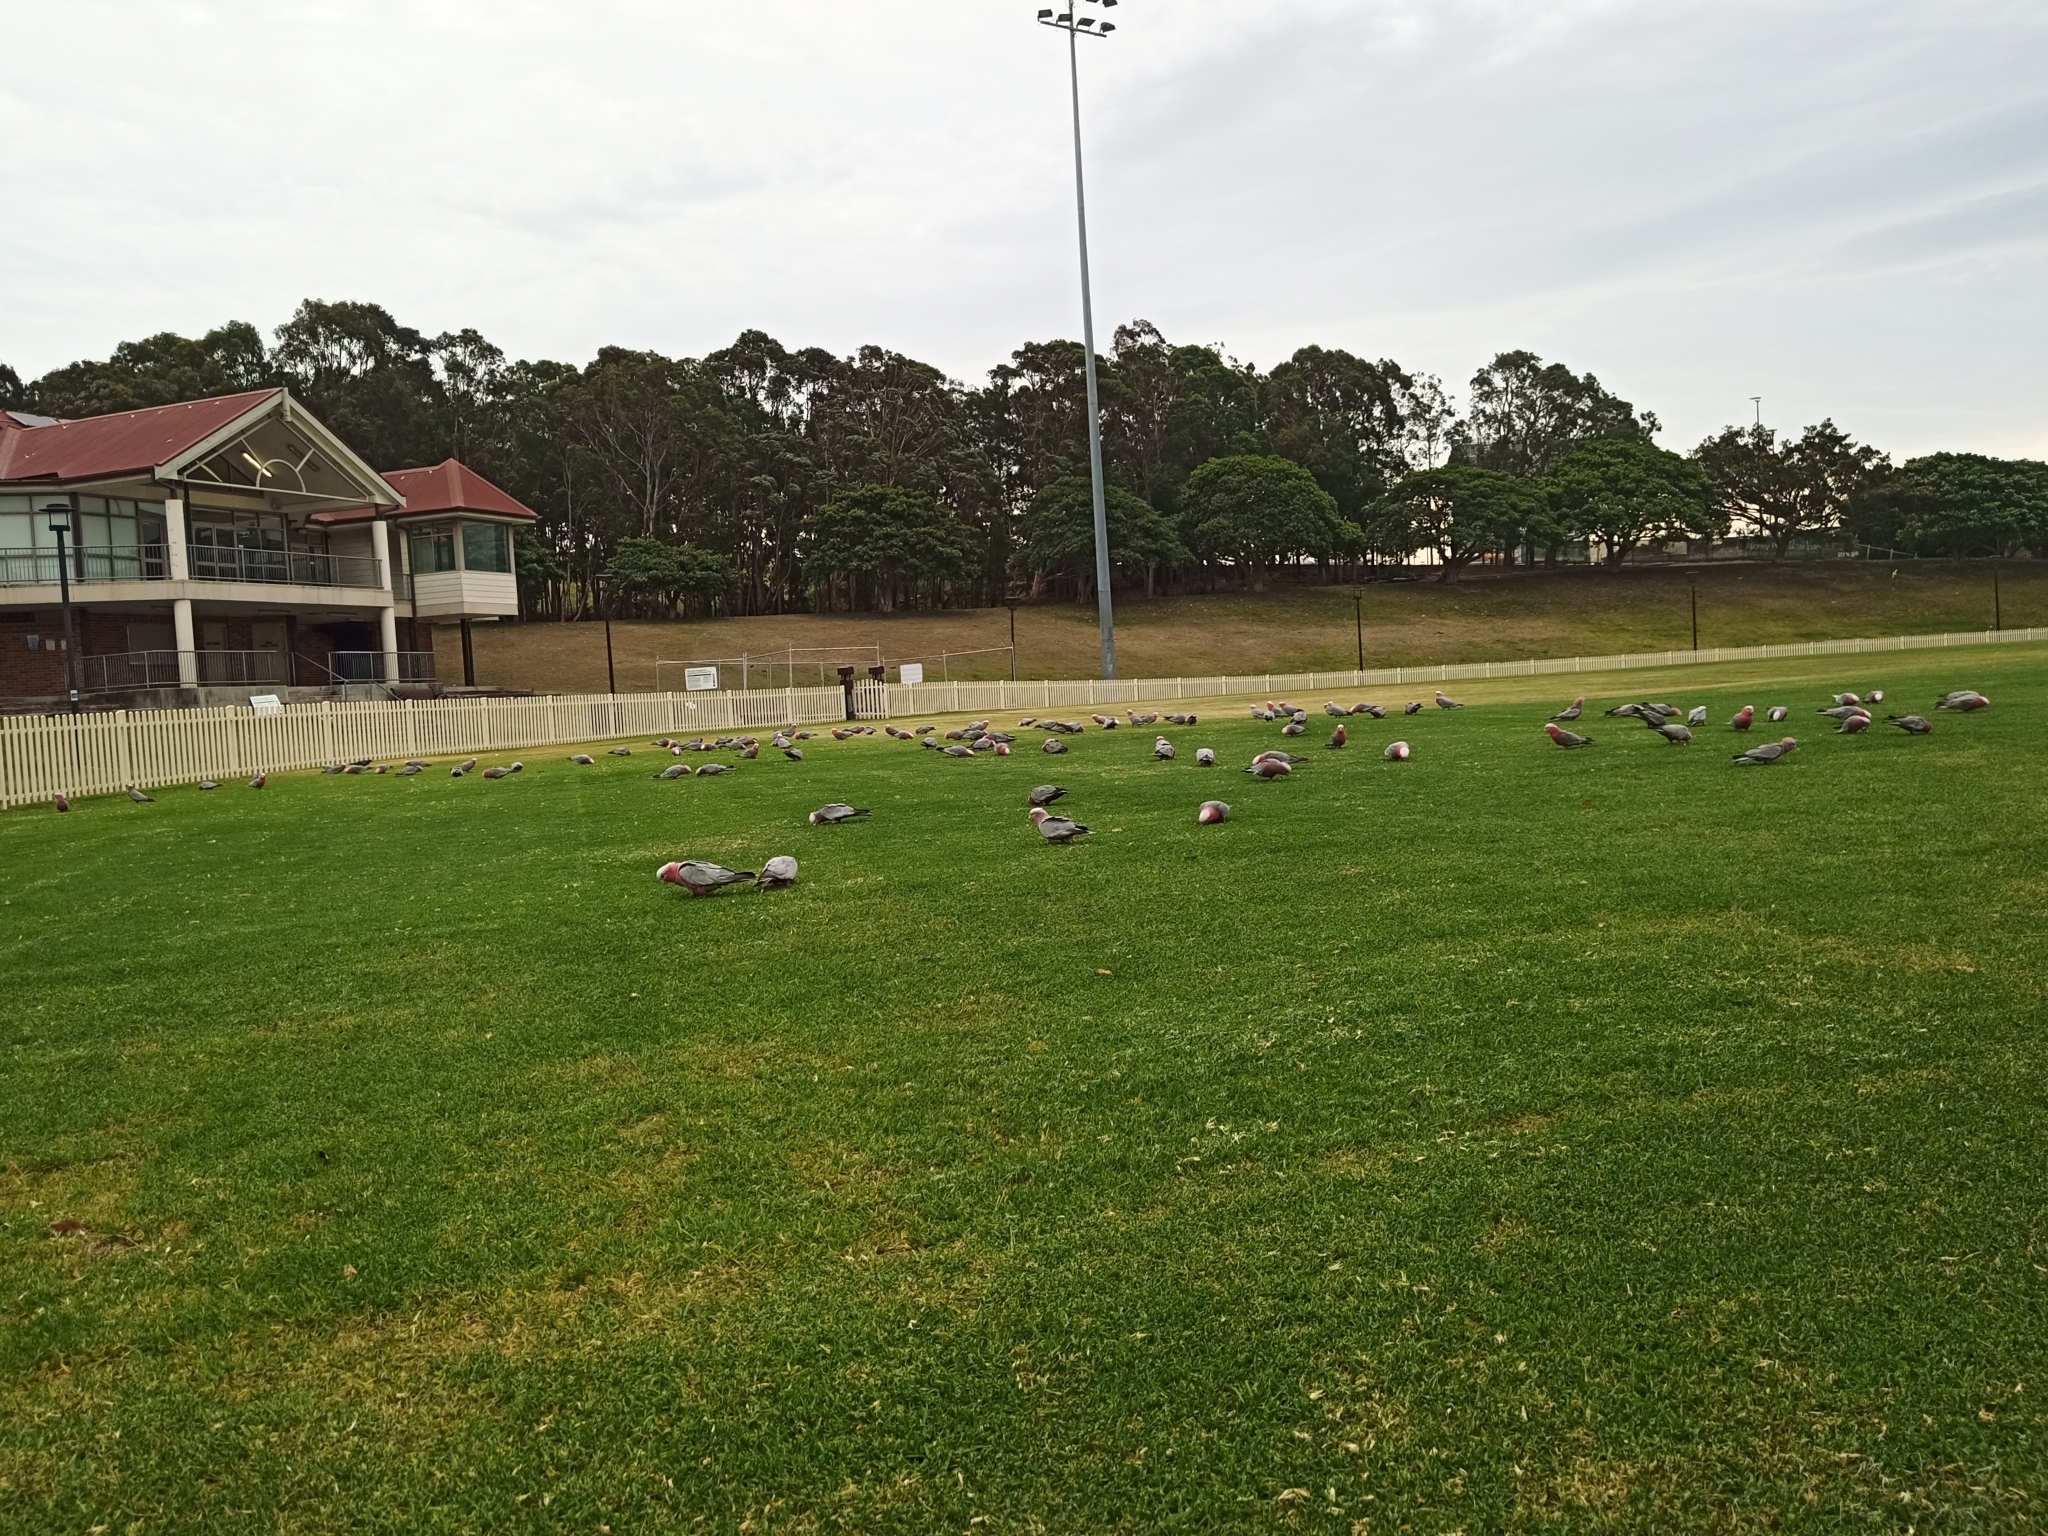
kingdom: Animalia
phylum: Chordata
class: Aves
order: Psittaciformes
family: Psittacidae
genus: Eolophus
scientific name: Eolophus roseicapilla
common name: Galah
